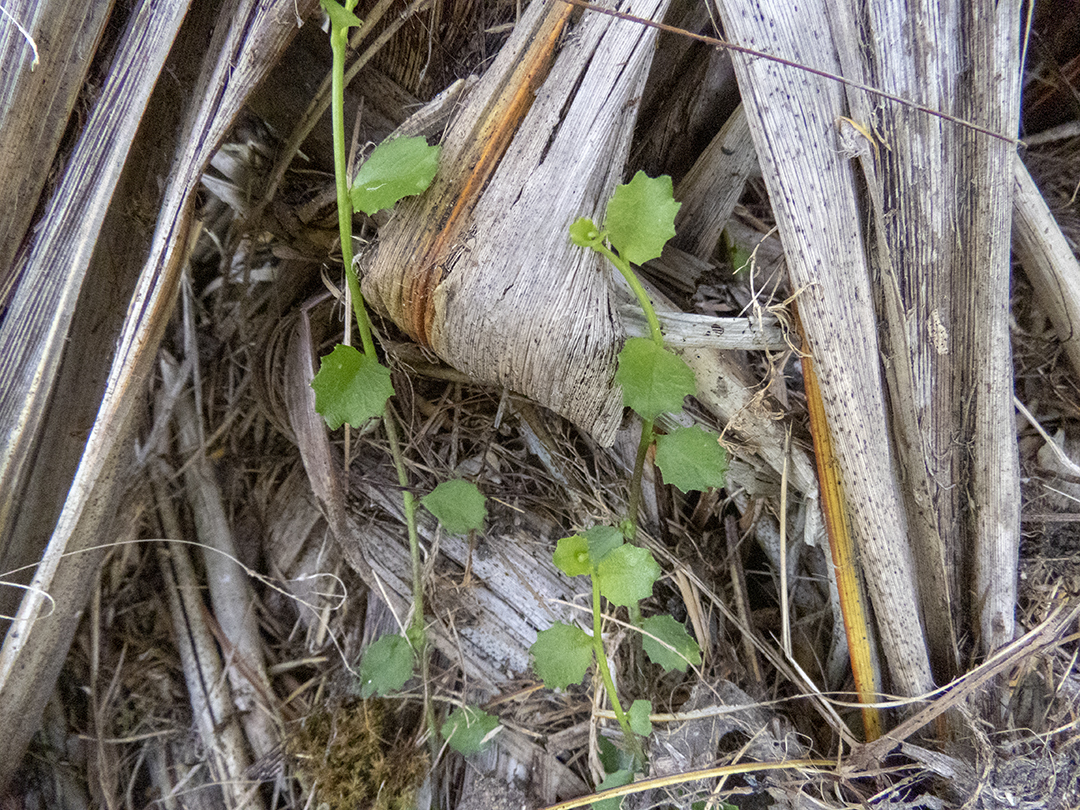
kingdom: Plantae
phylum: Tracheophyta
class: Magnoliopsida
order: Asterales
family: Campanulaceae
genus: Lobelia
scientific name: Lobelia angulata
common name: Lawn lobelia
